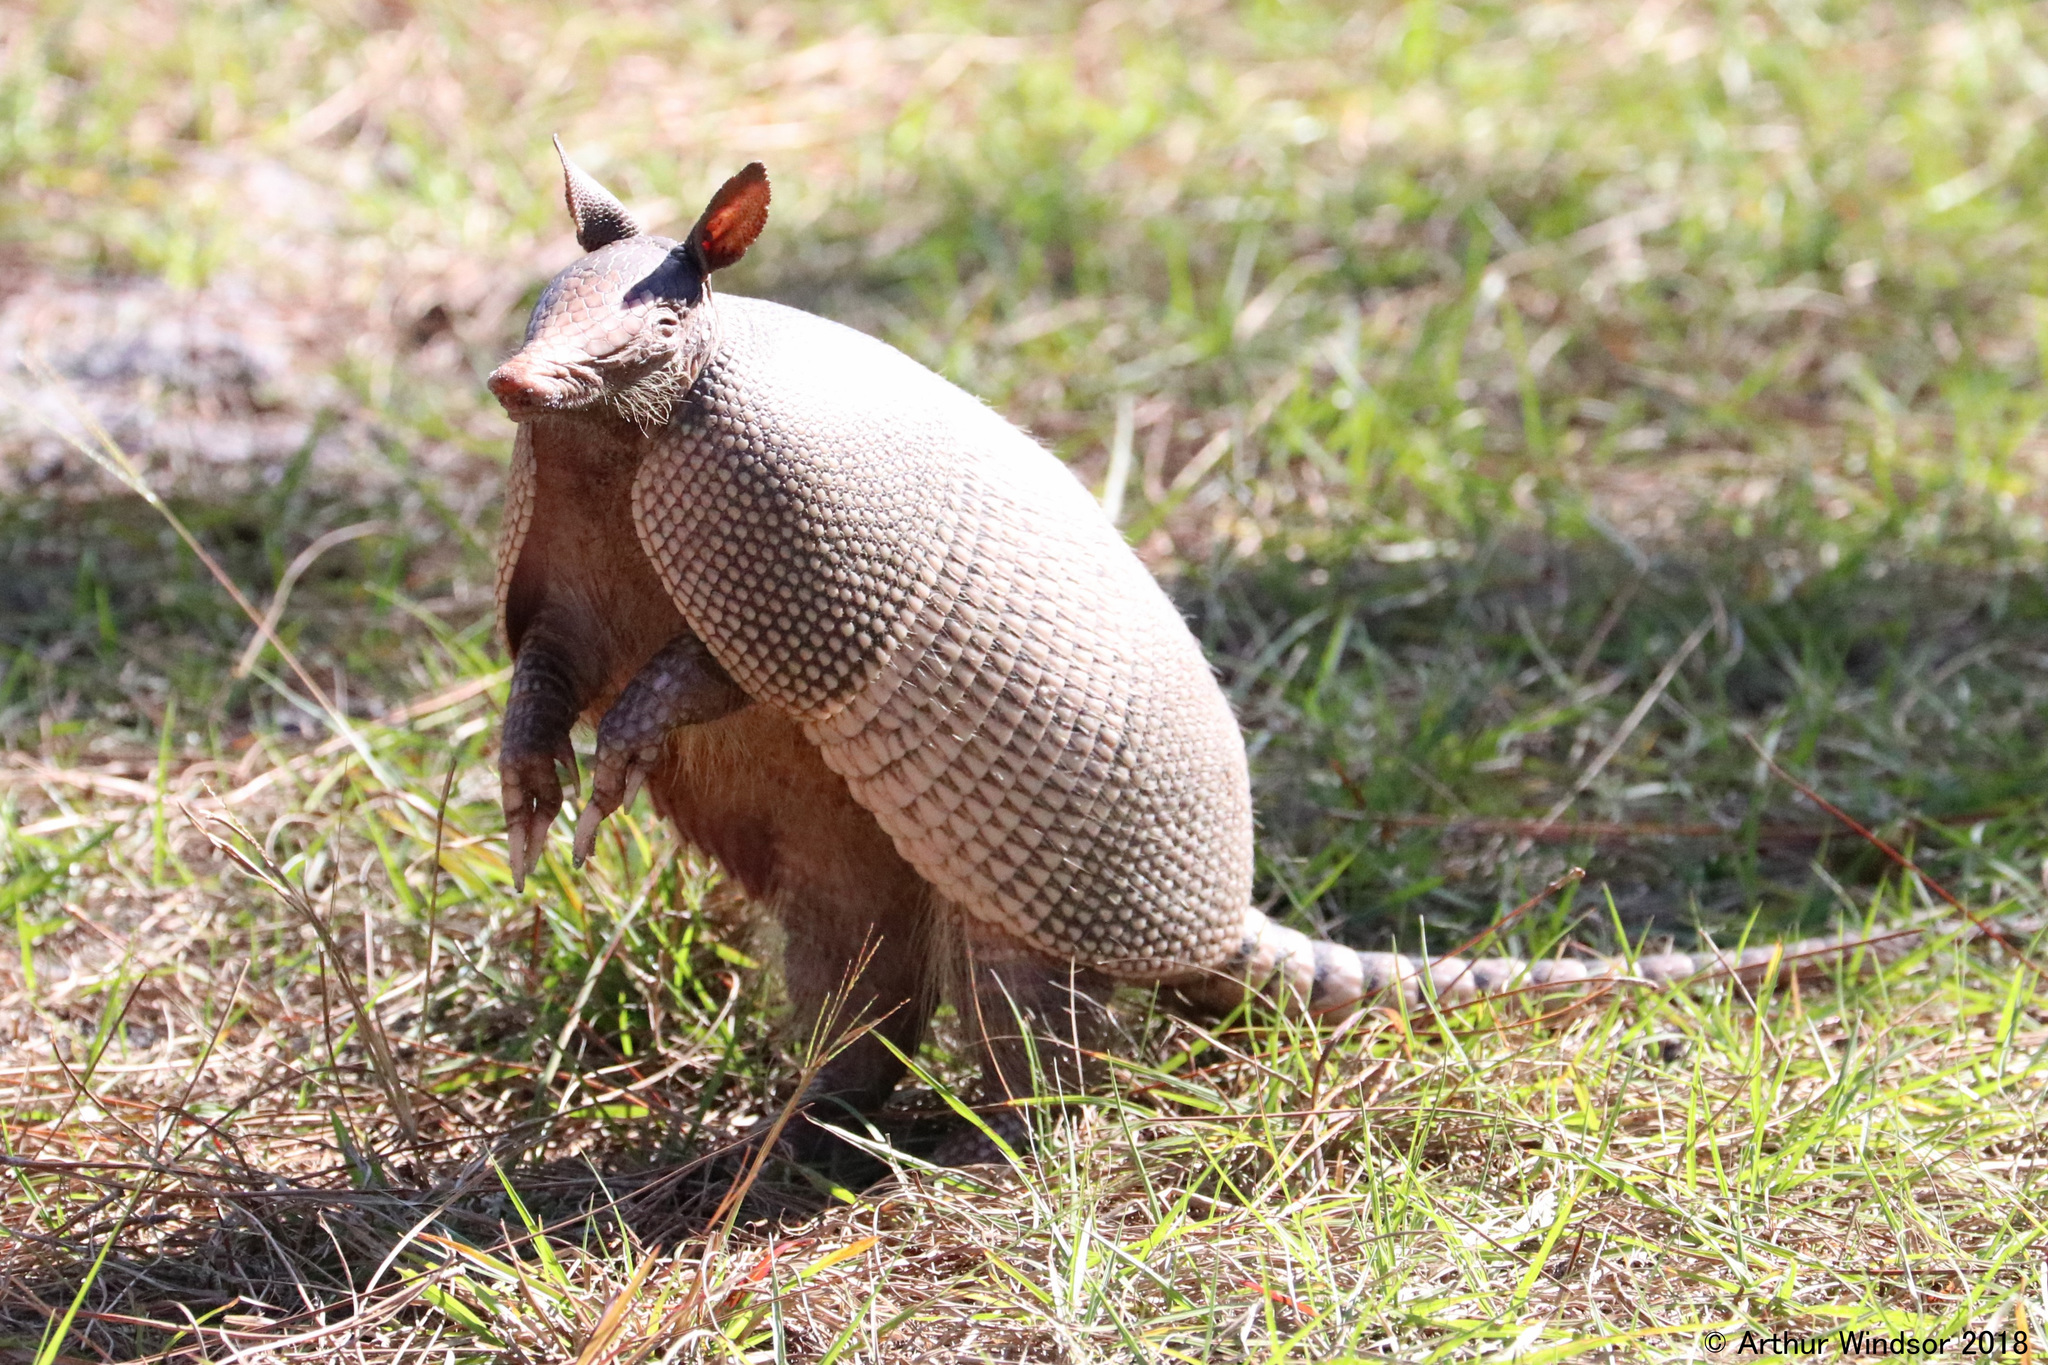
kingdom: Animalia
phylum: Chordata
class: Mammalia
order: Cingulata
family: Dasypodidae
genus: Dasypus
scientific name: Dasypus novemcinctus
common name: Nine-banded armadillo
